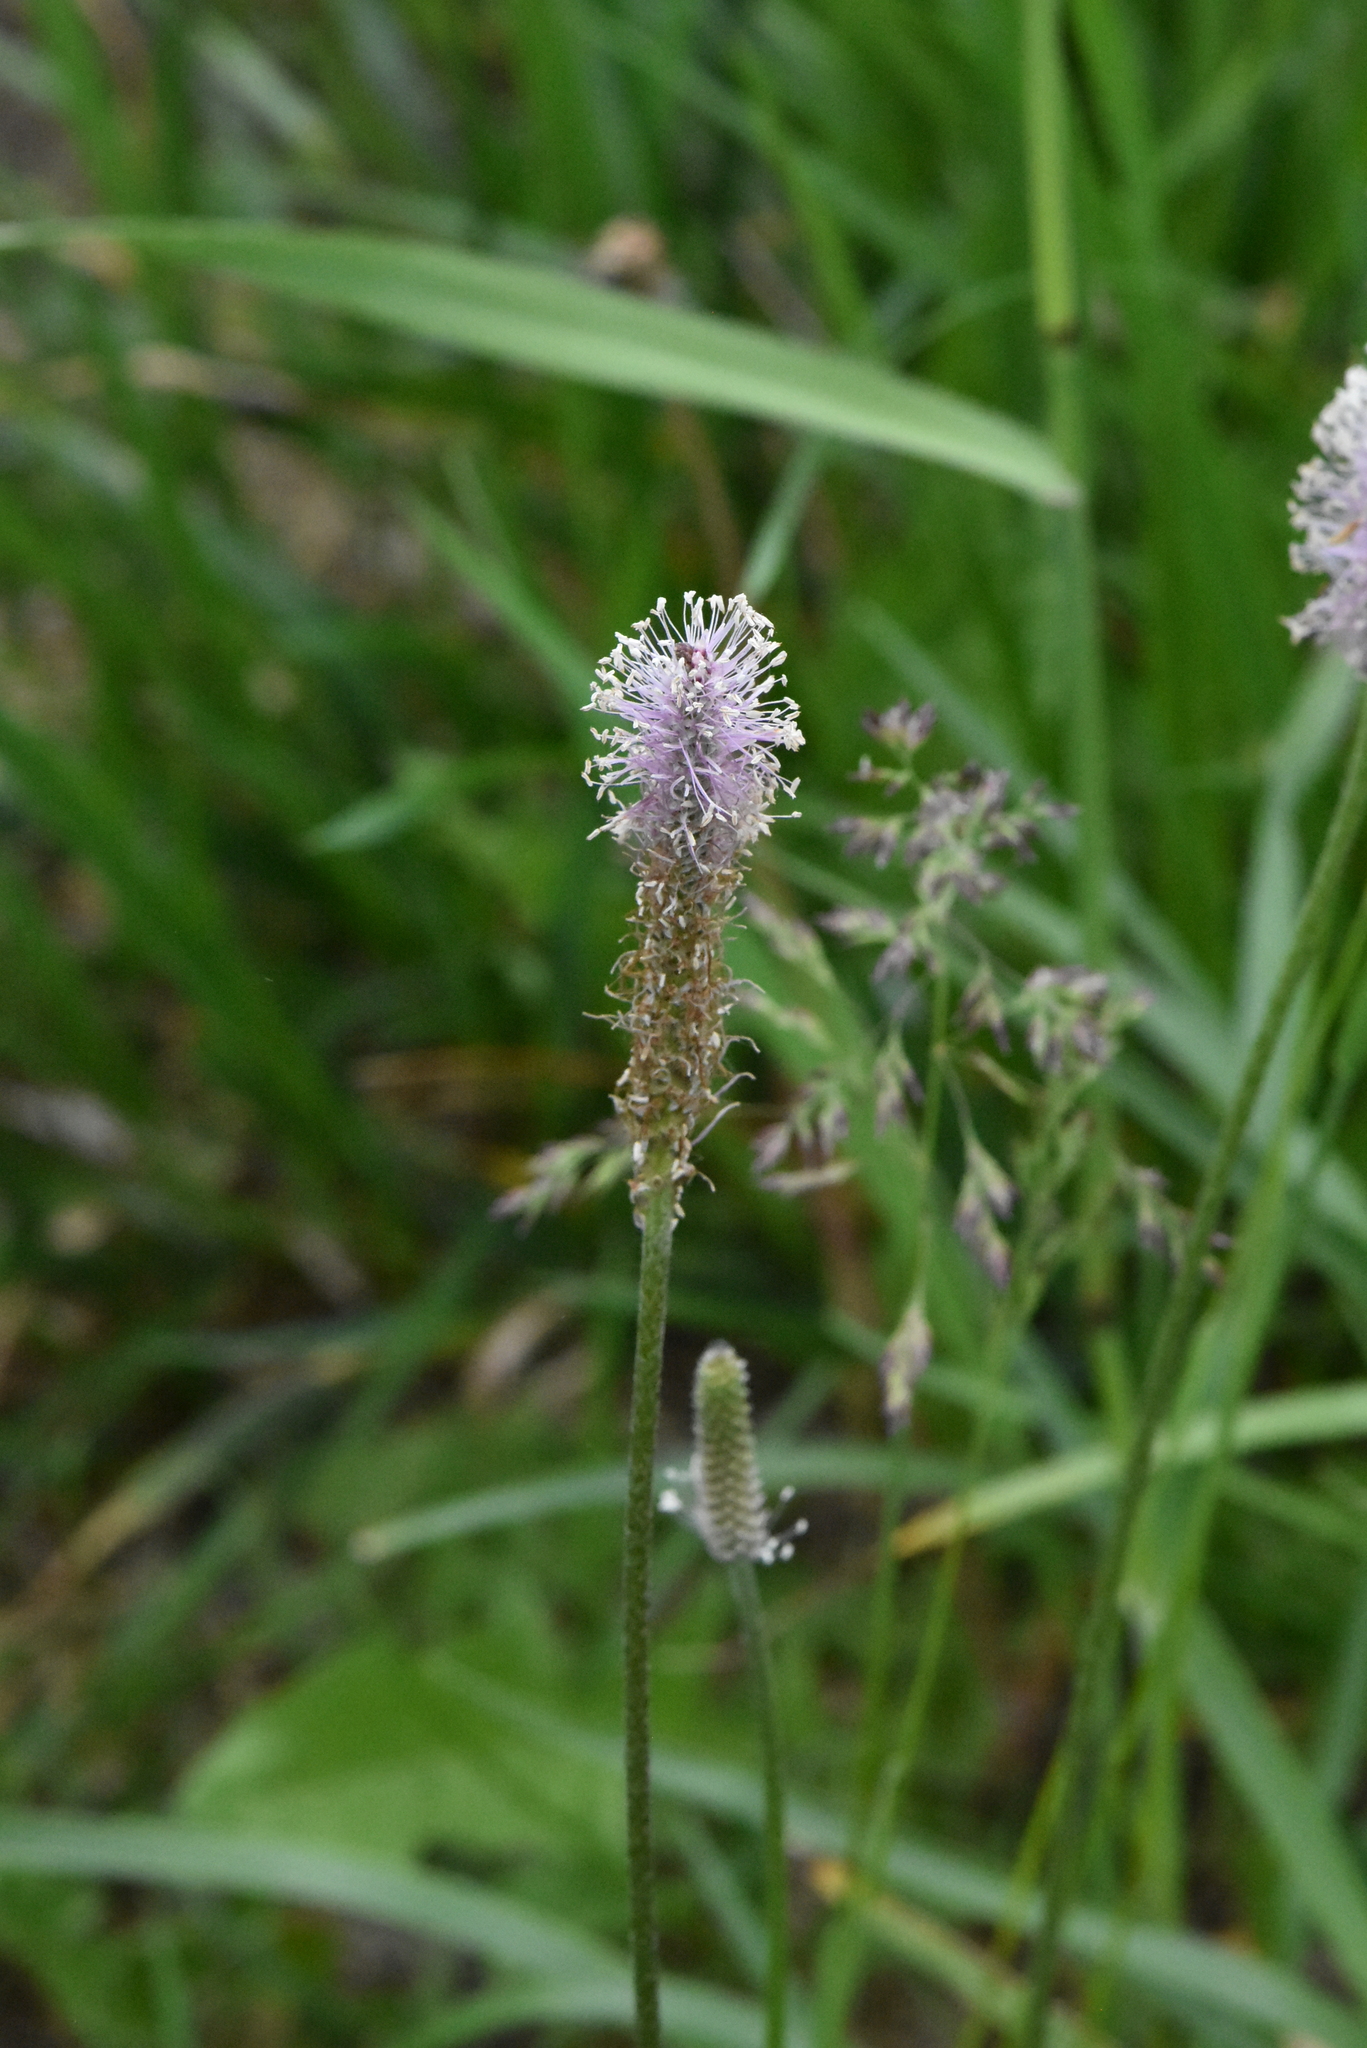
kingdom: Plantae
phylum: Tracheophyta
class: Magnoliopsida
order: Lamiales
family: Plantaginaceae
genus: Plantago
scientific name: Plantago media
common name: Hoary plantain
